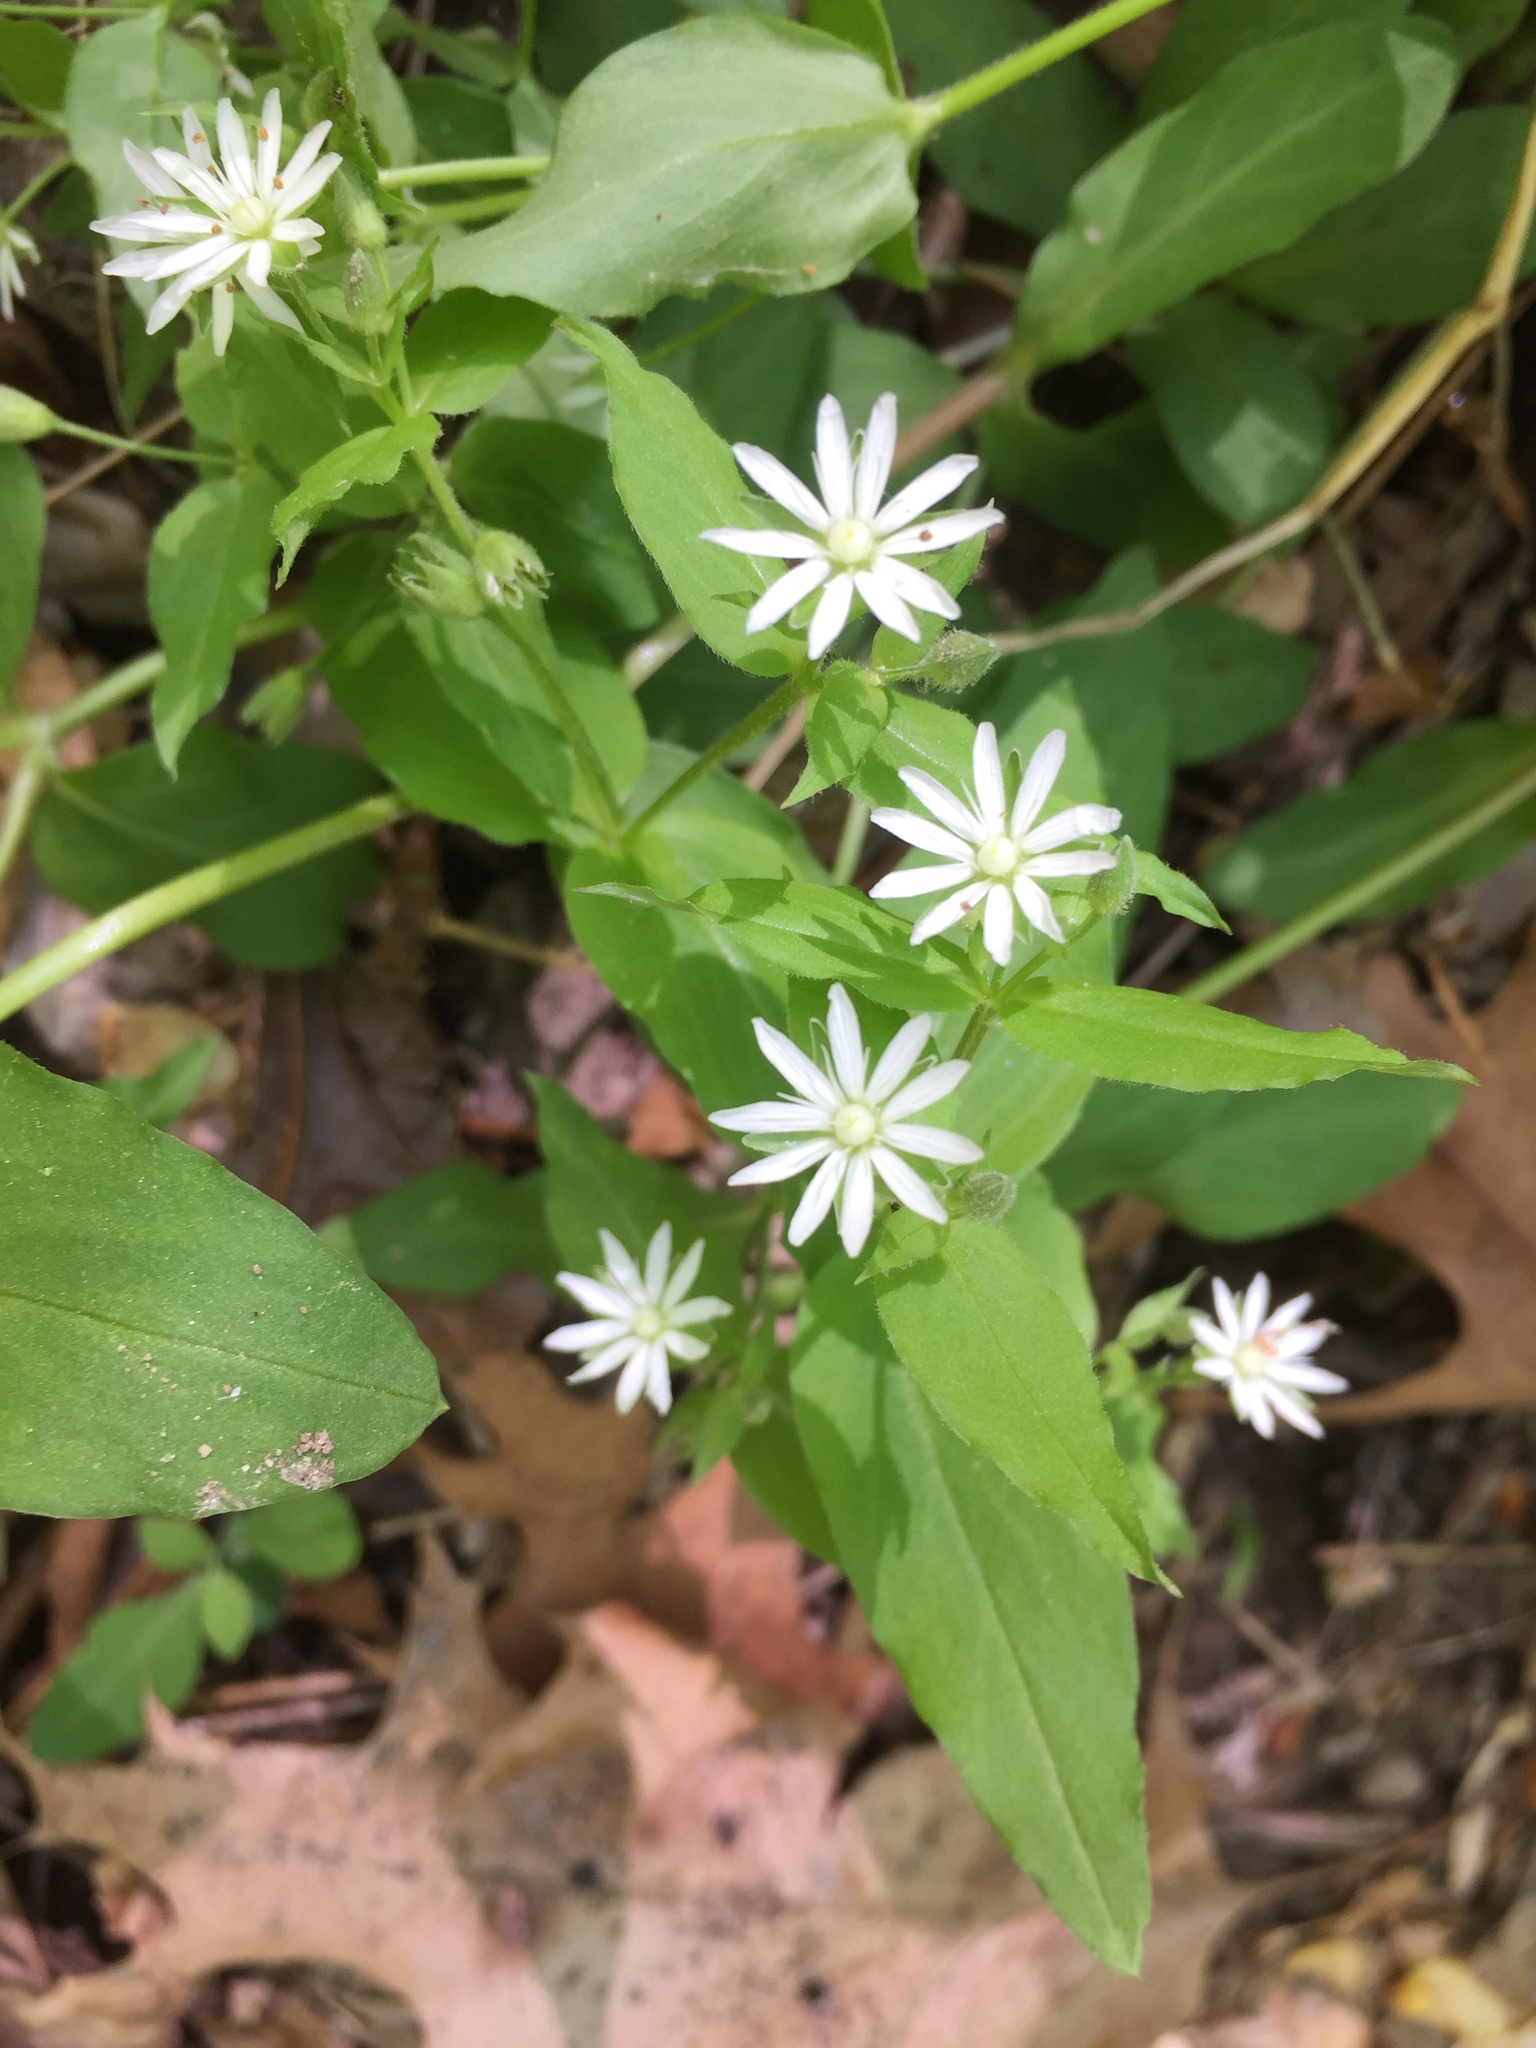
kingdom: Plantae
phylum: Tracheophyta
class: Magnoliopsida
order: Caryophyllales
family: Caryophyllaceae
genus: Stellaria
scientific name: Stellaria pubera
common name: Star chickweed
